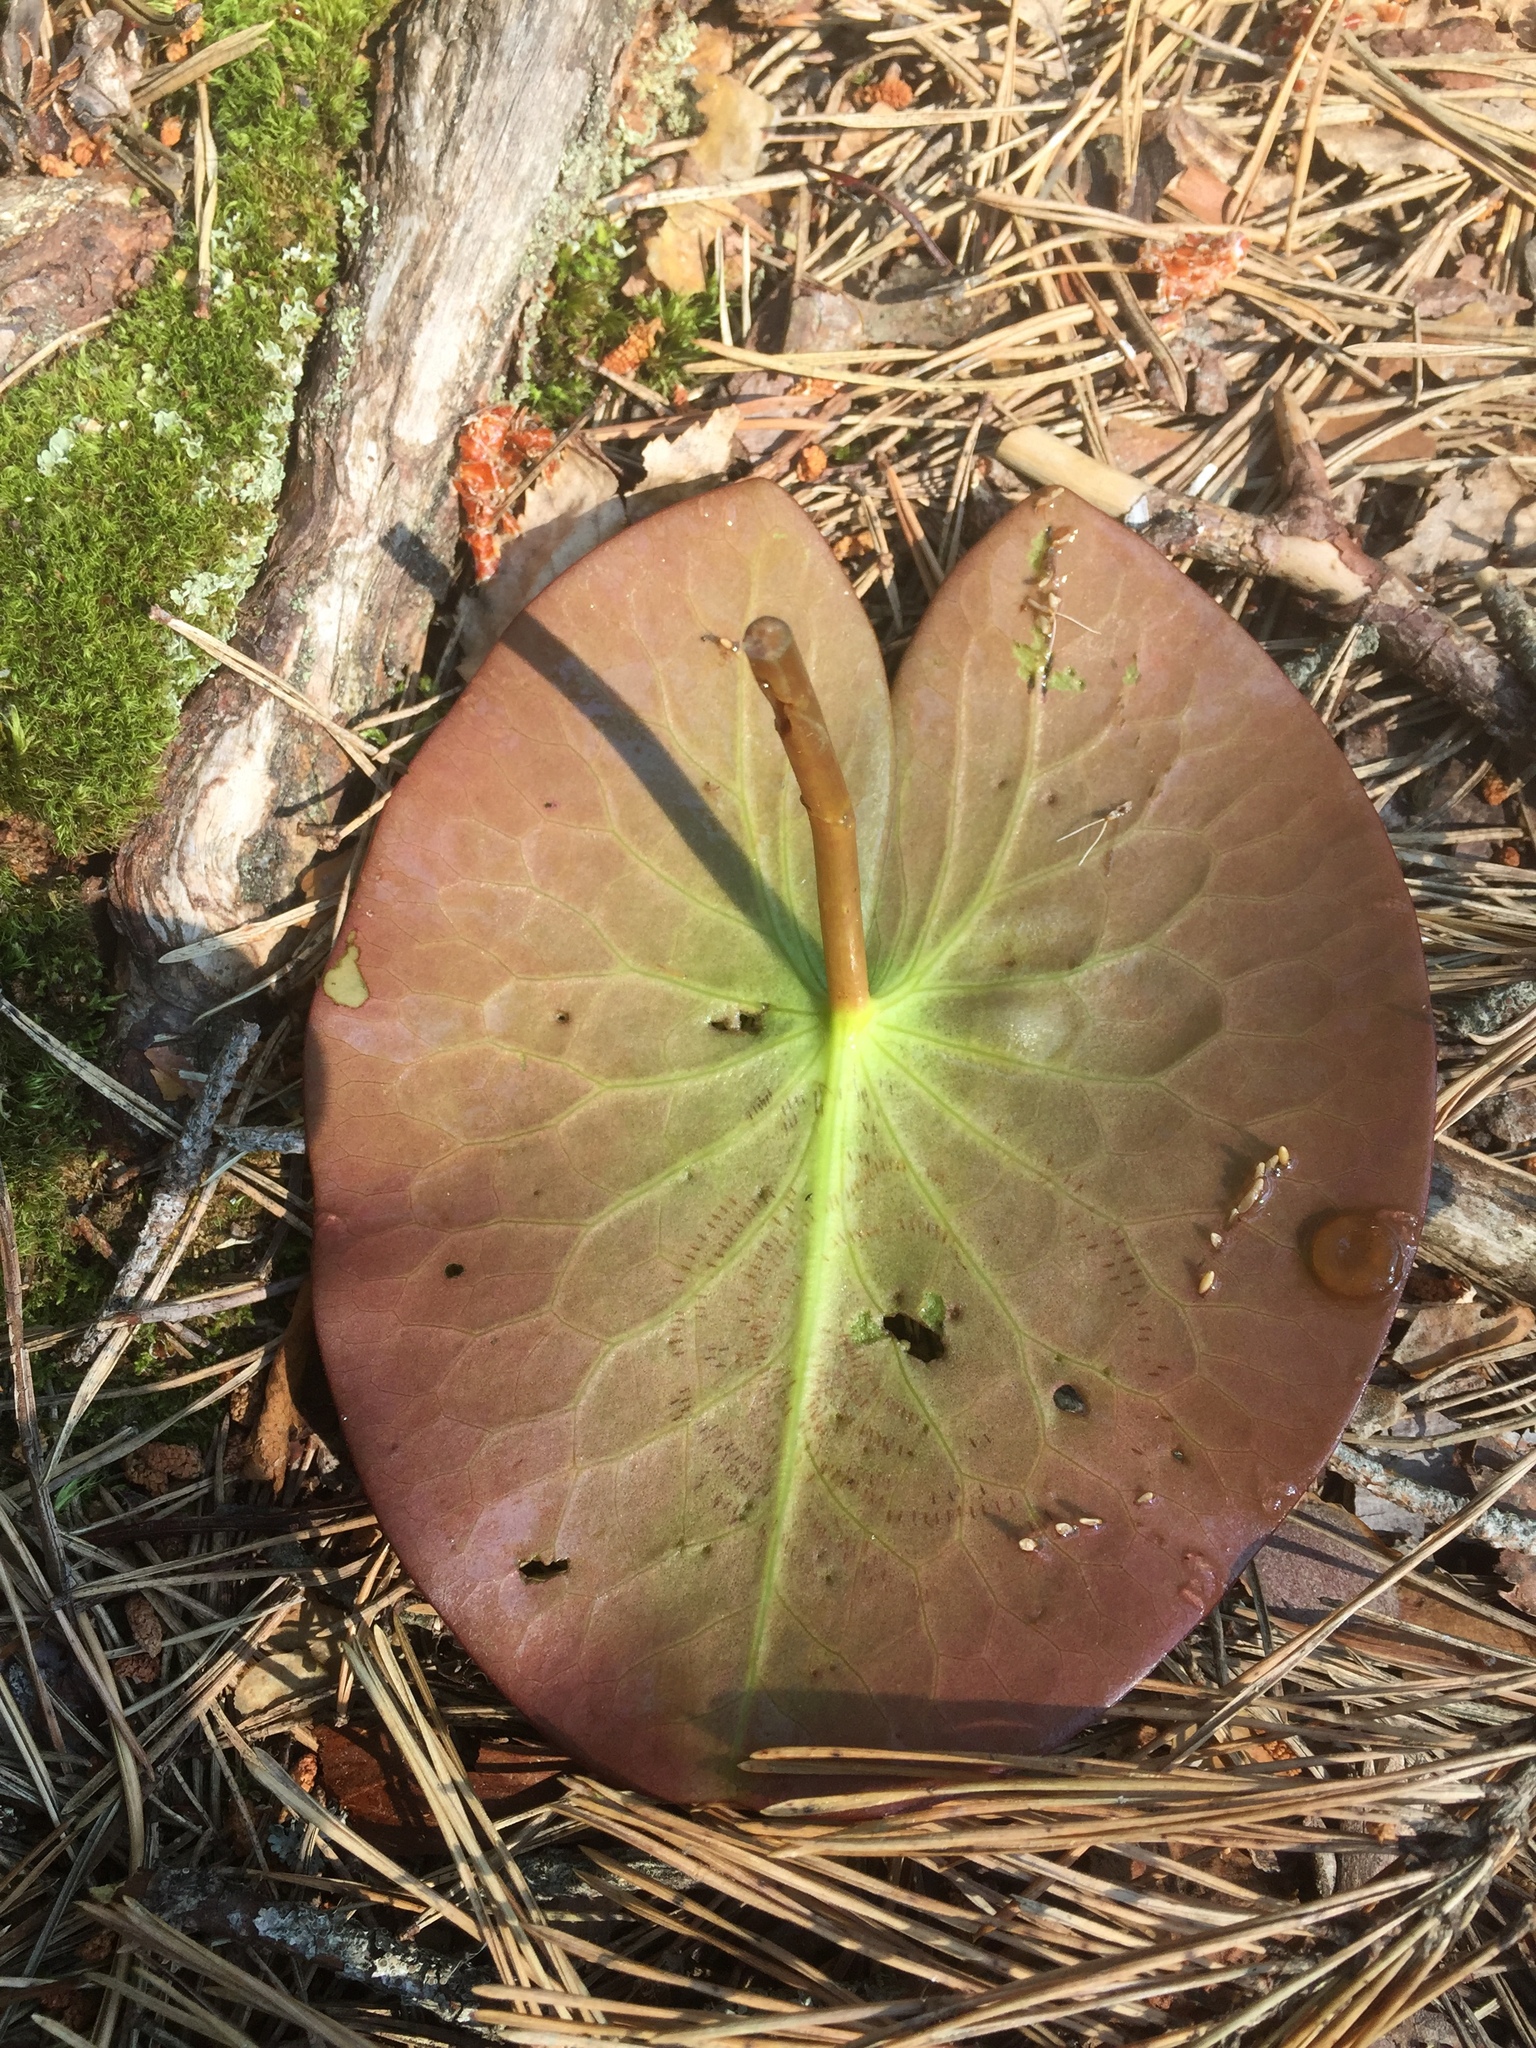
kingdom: Plantae
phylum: Tracheophyta
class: Magnoliopsida
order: Nymphaeales
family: Nymphaeaceae
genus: Nymphaea
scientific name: Nymphaea candida
